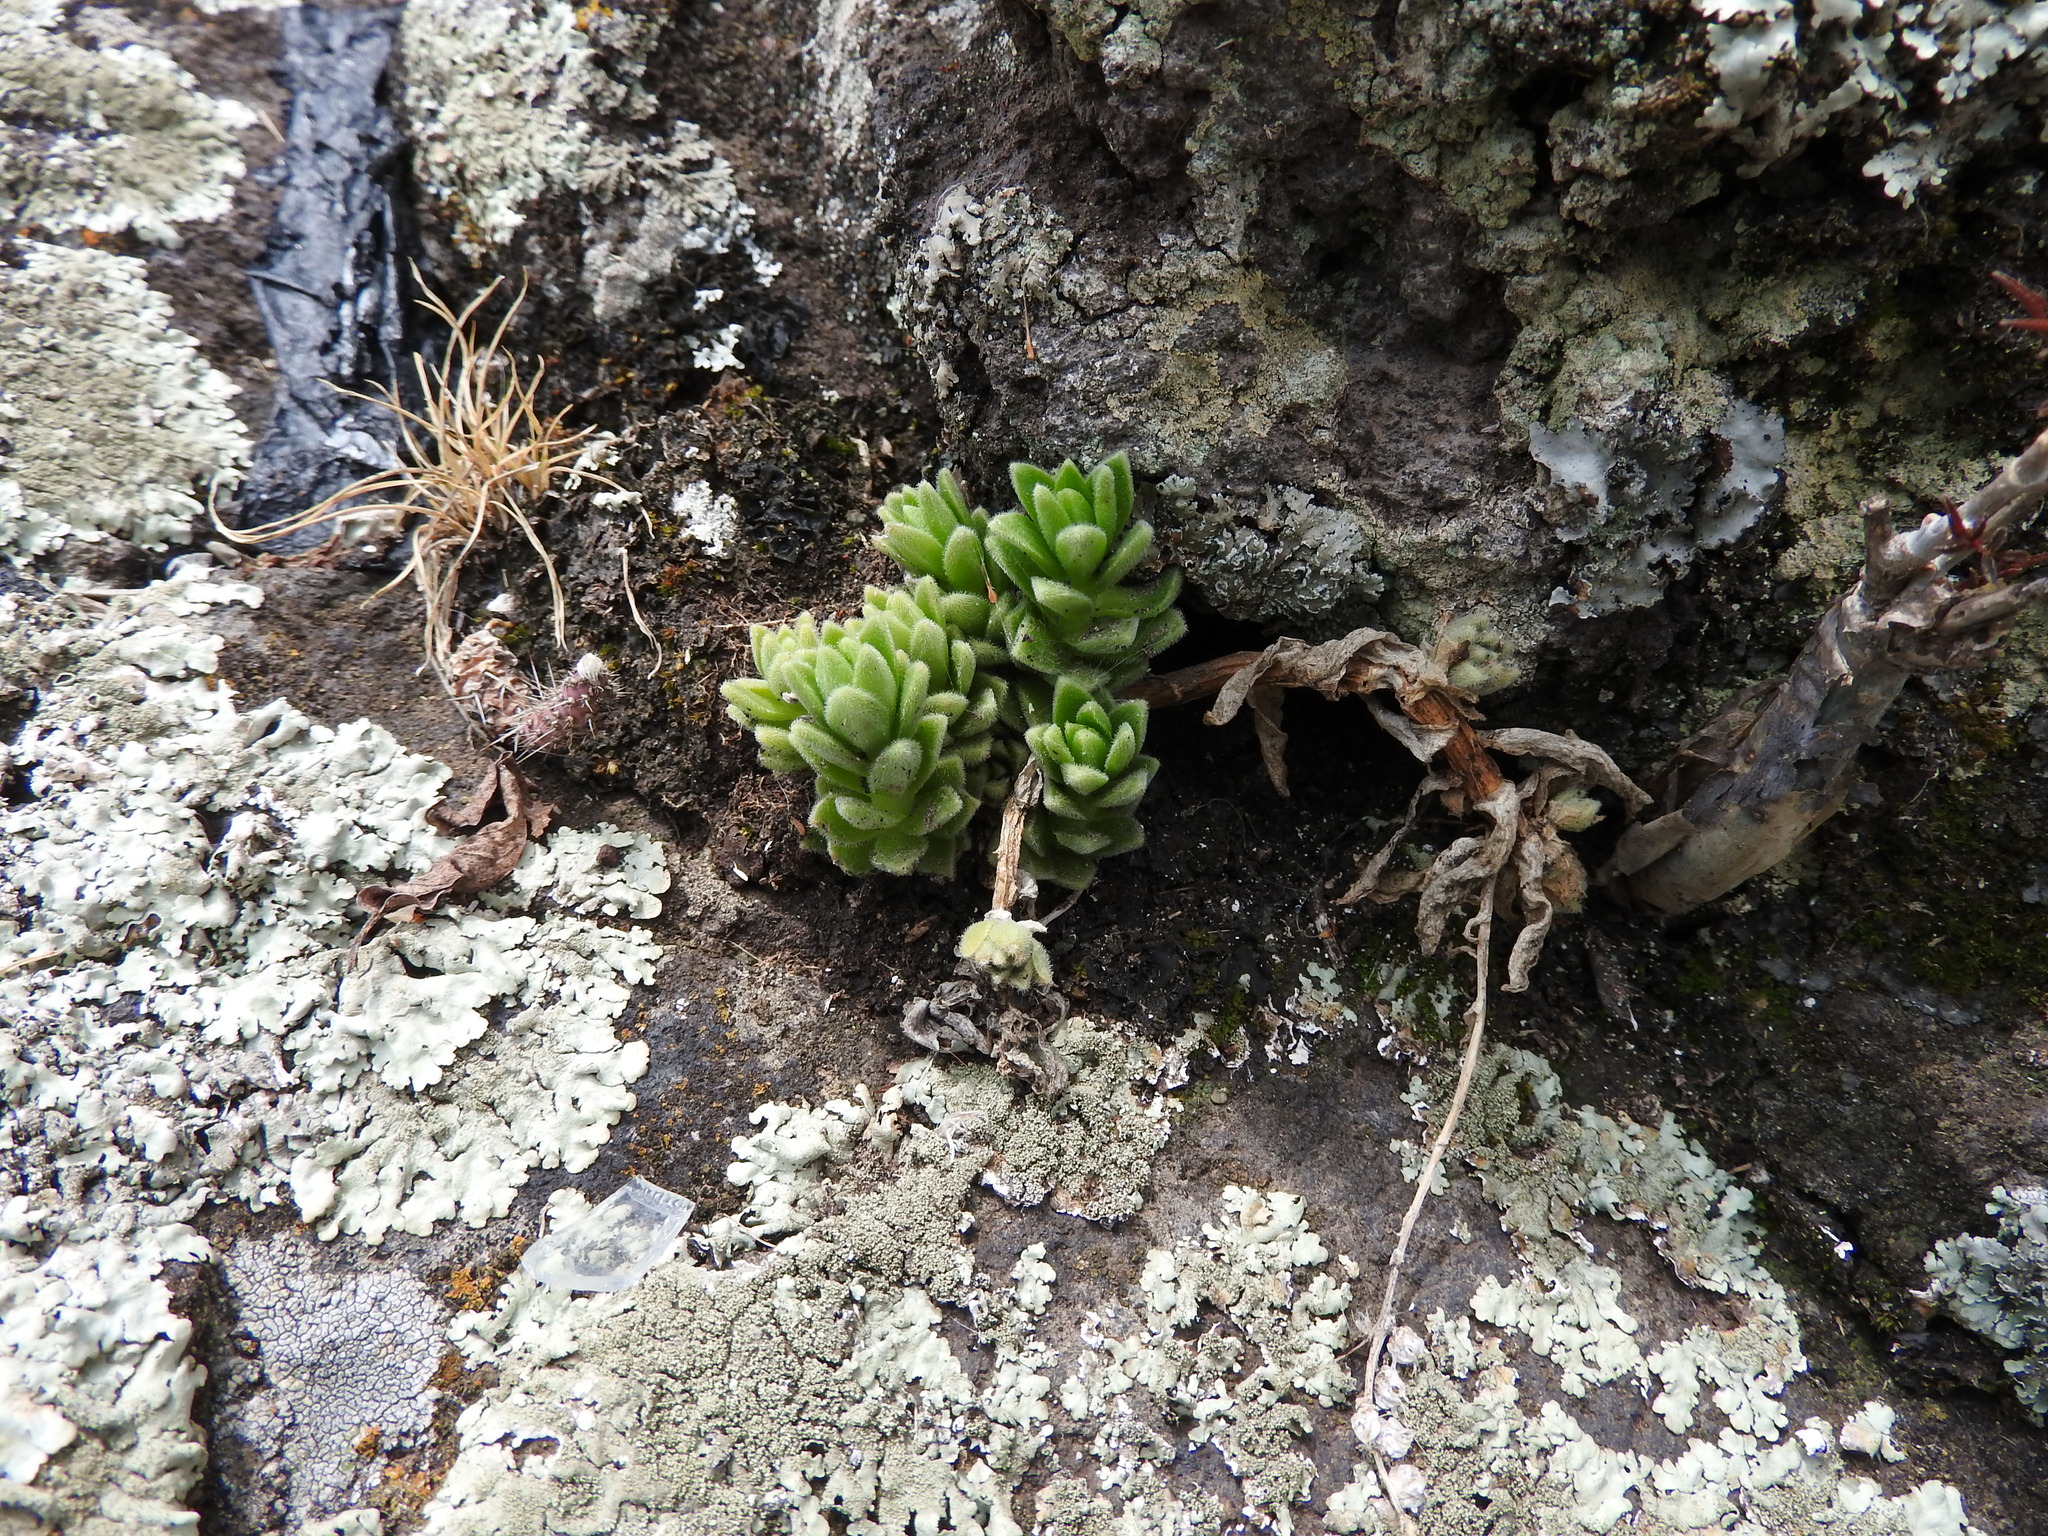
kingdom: Plantae
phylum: Tracheophyta
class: Magnoliopsida
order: Saxifragales
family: Crassulaceae
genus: Sedum
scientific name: Sedum ebracteatum
